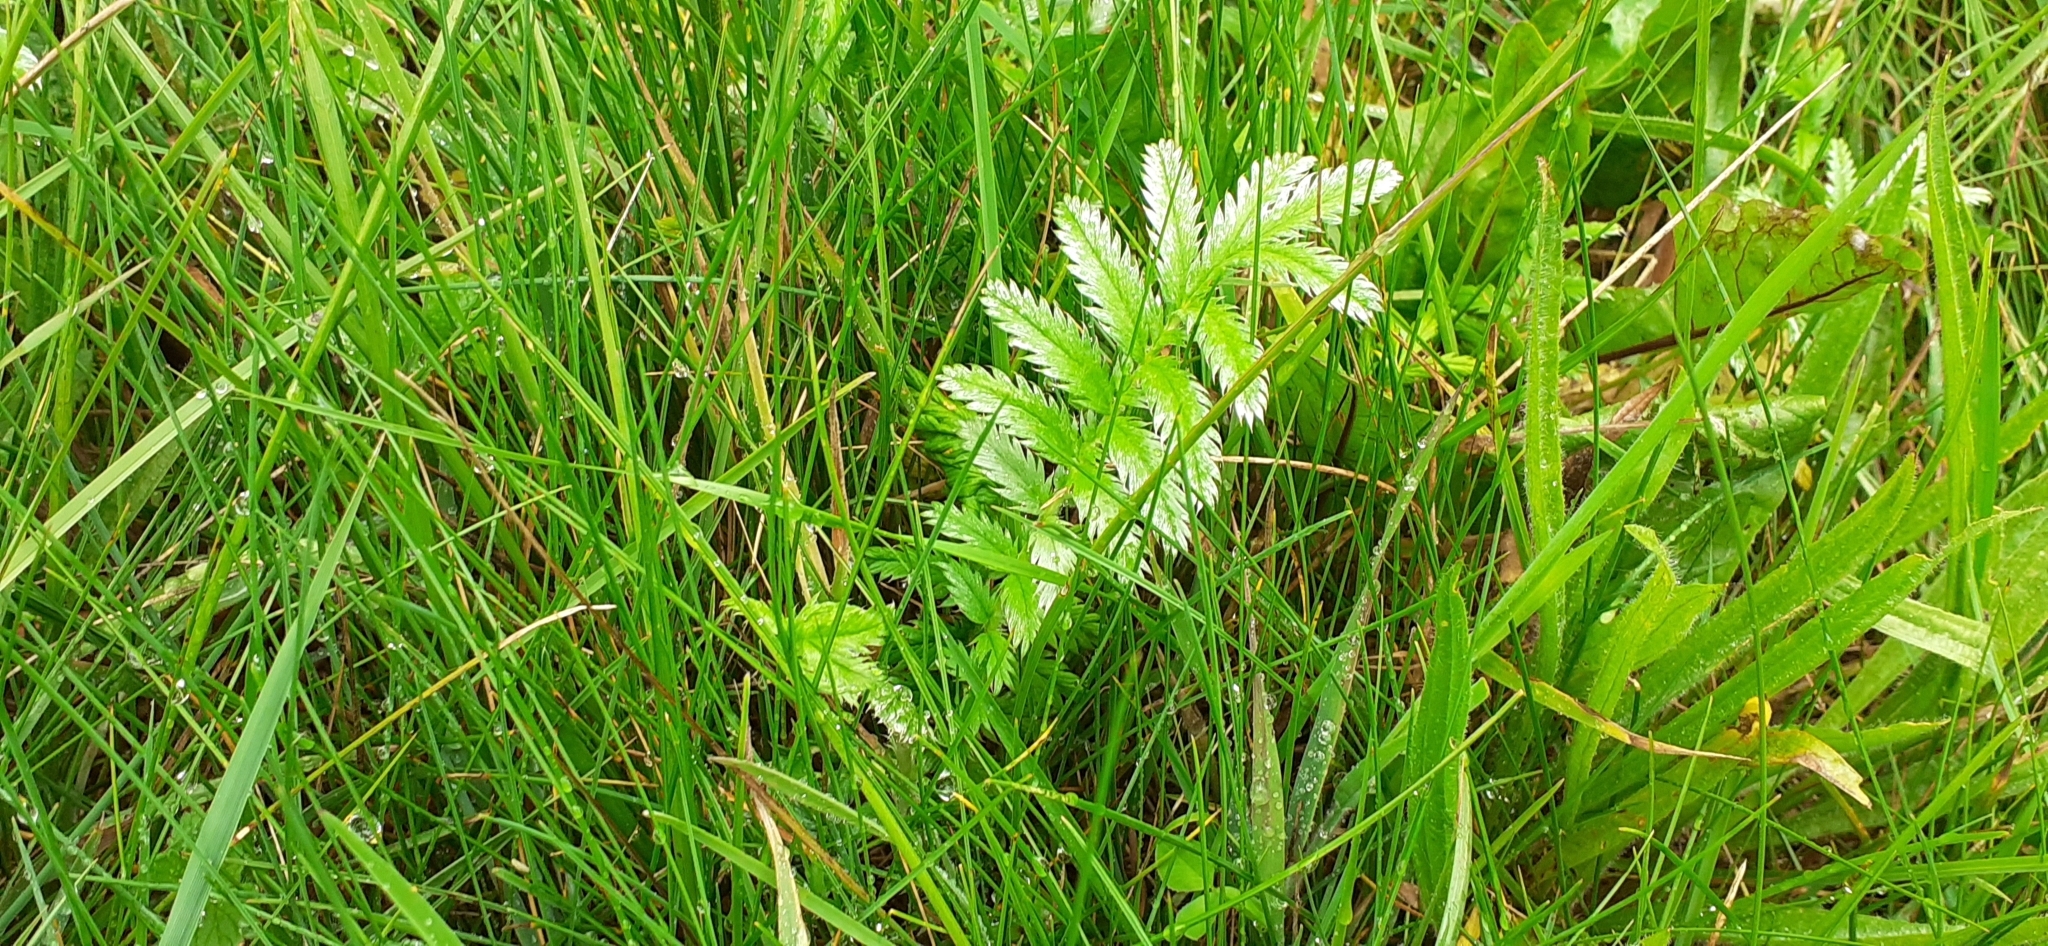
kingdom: Plantae
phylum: Tracheophyta
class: Magnoliopsida
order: Rosales
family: Rosaceae
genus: Argentina
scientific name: Argentina anserina
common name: Common silverweed
